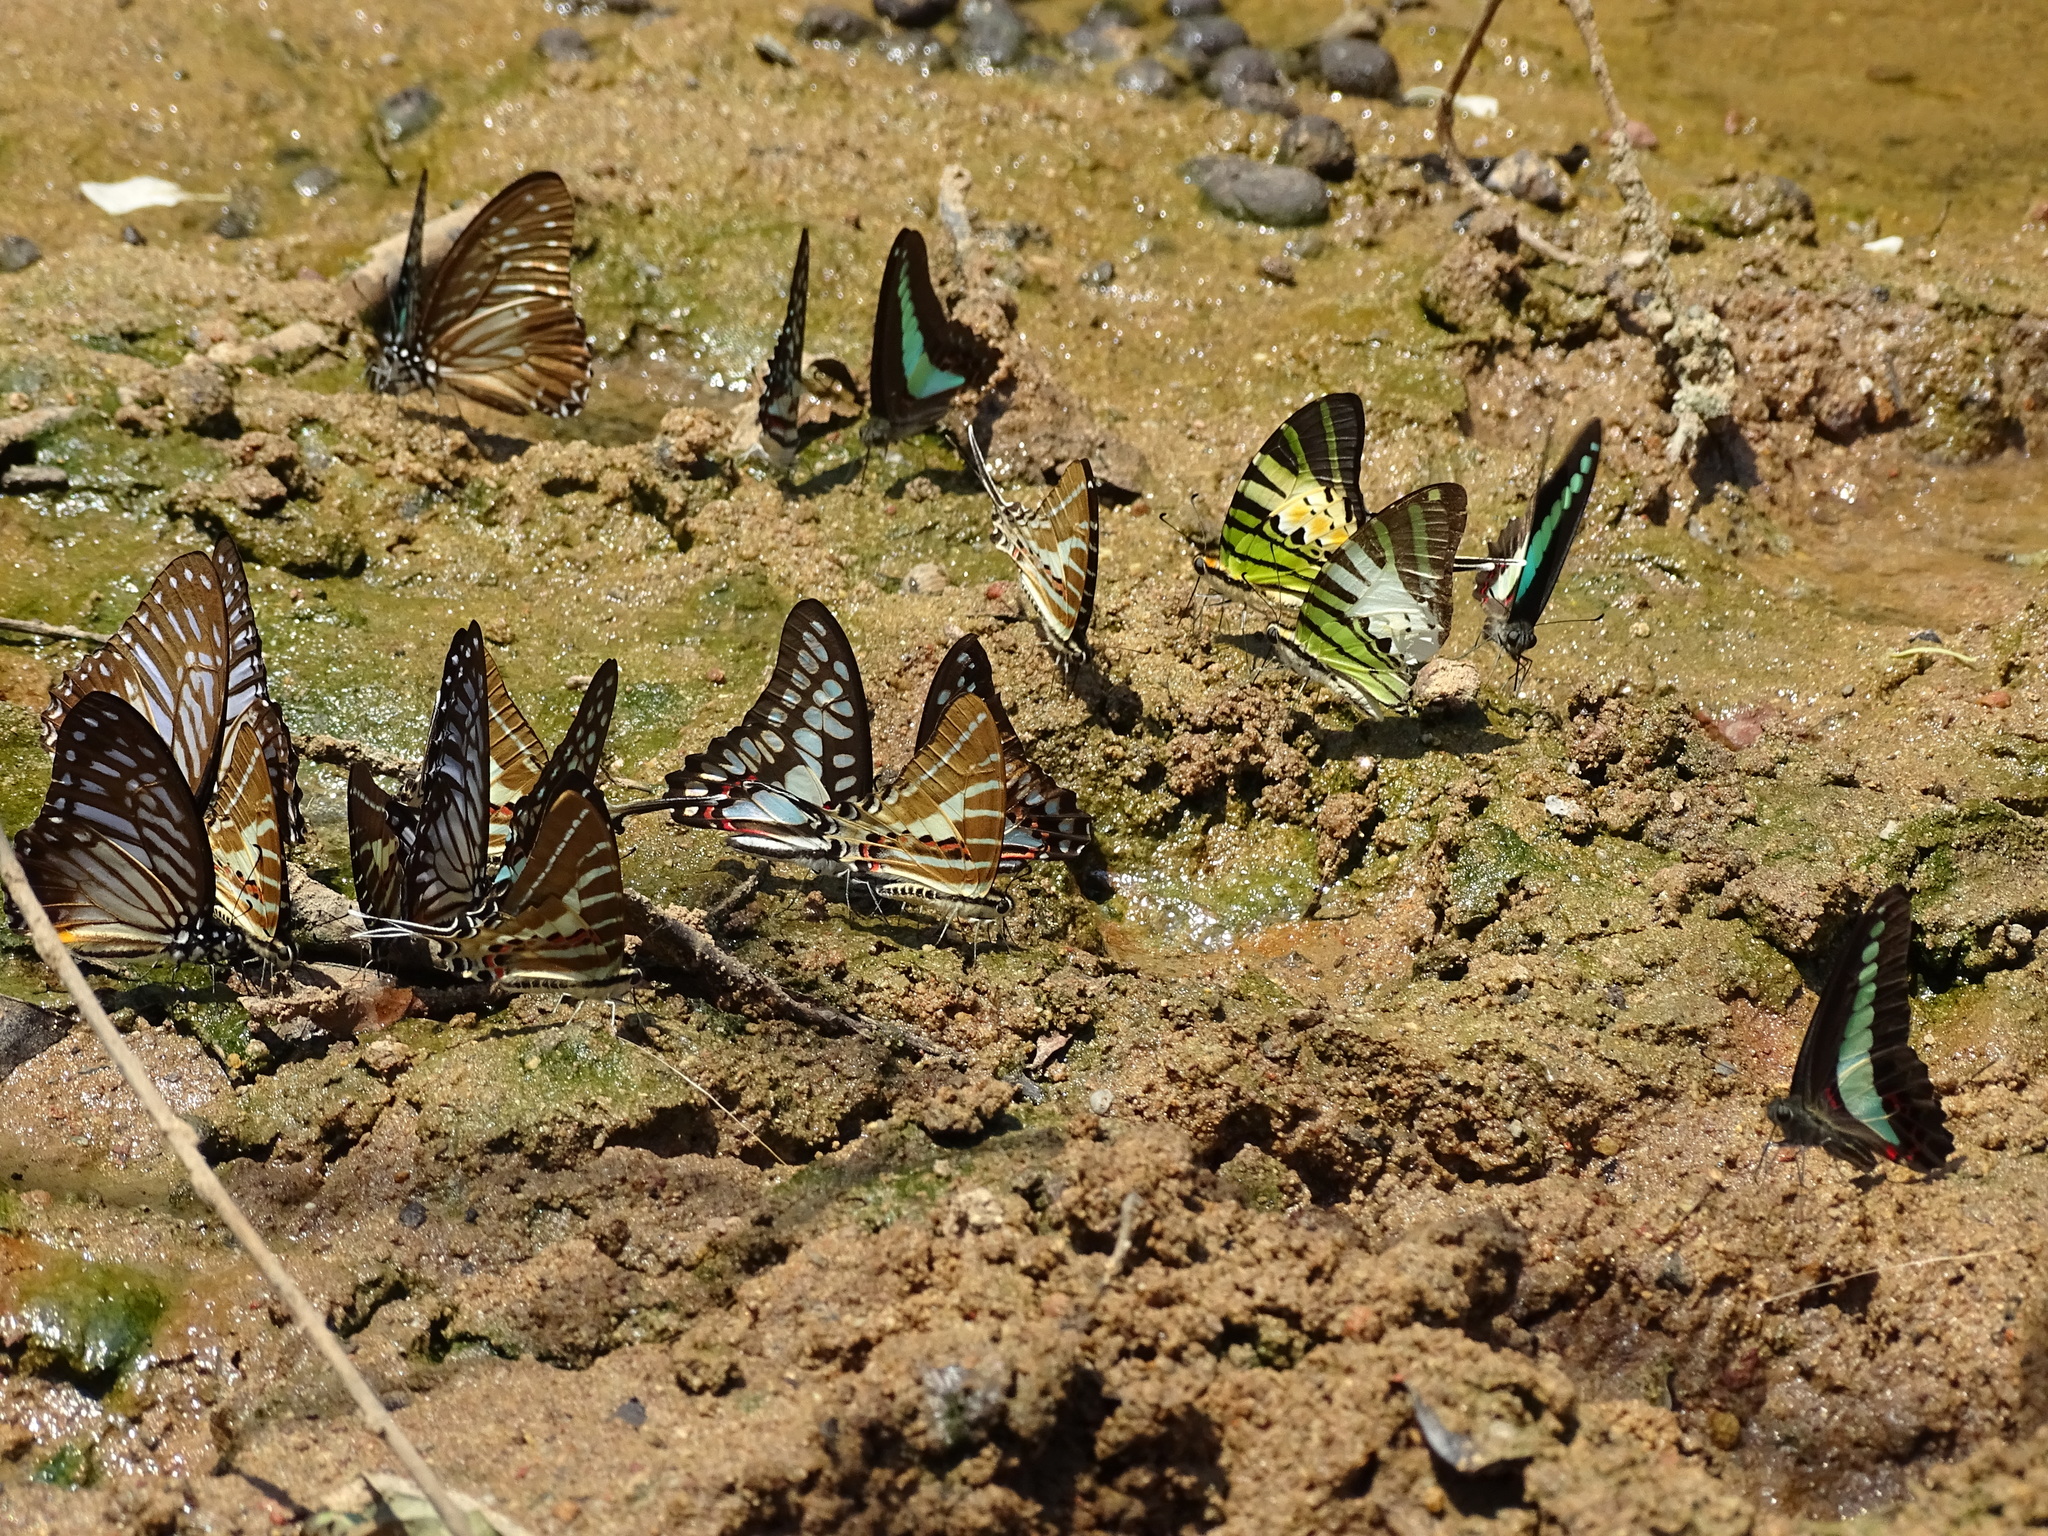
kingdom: Animalia
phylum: Arthropoda
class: Insecta
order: Lepidoptera
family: Papilionidae
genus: Graphium
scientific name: Graphium aristeus
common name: Chain swordtail
